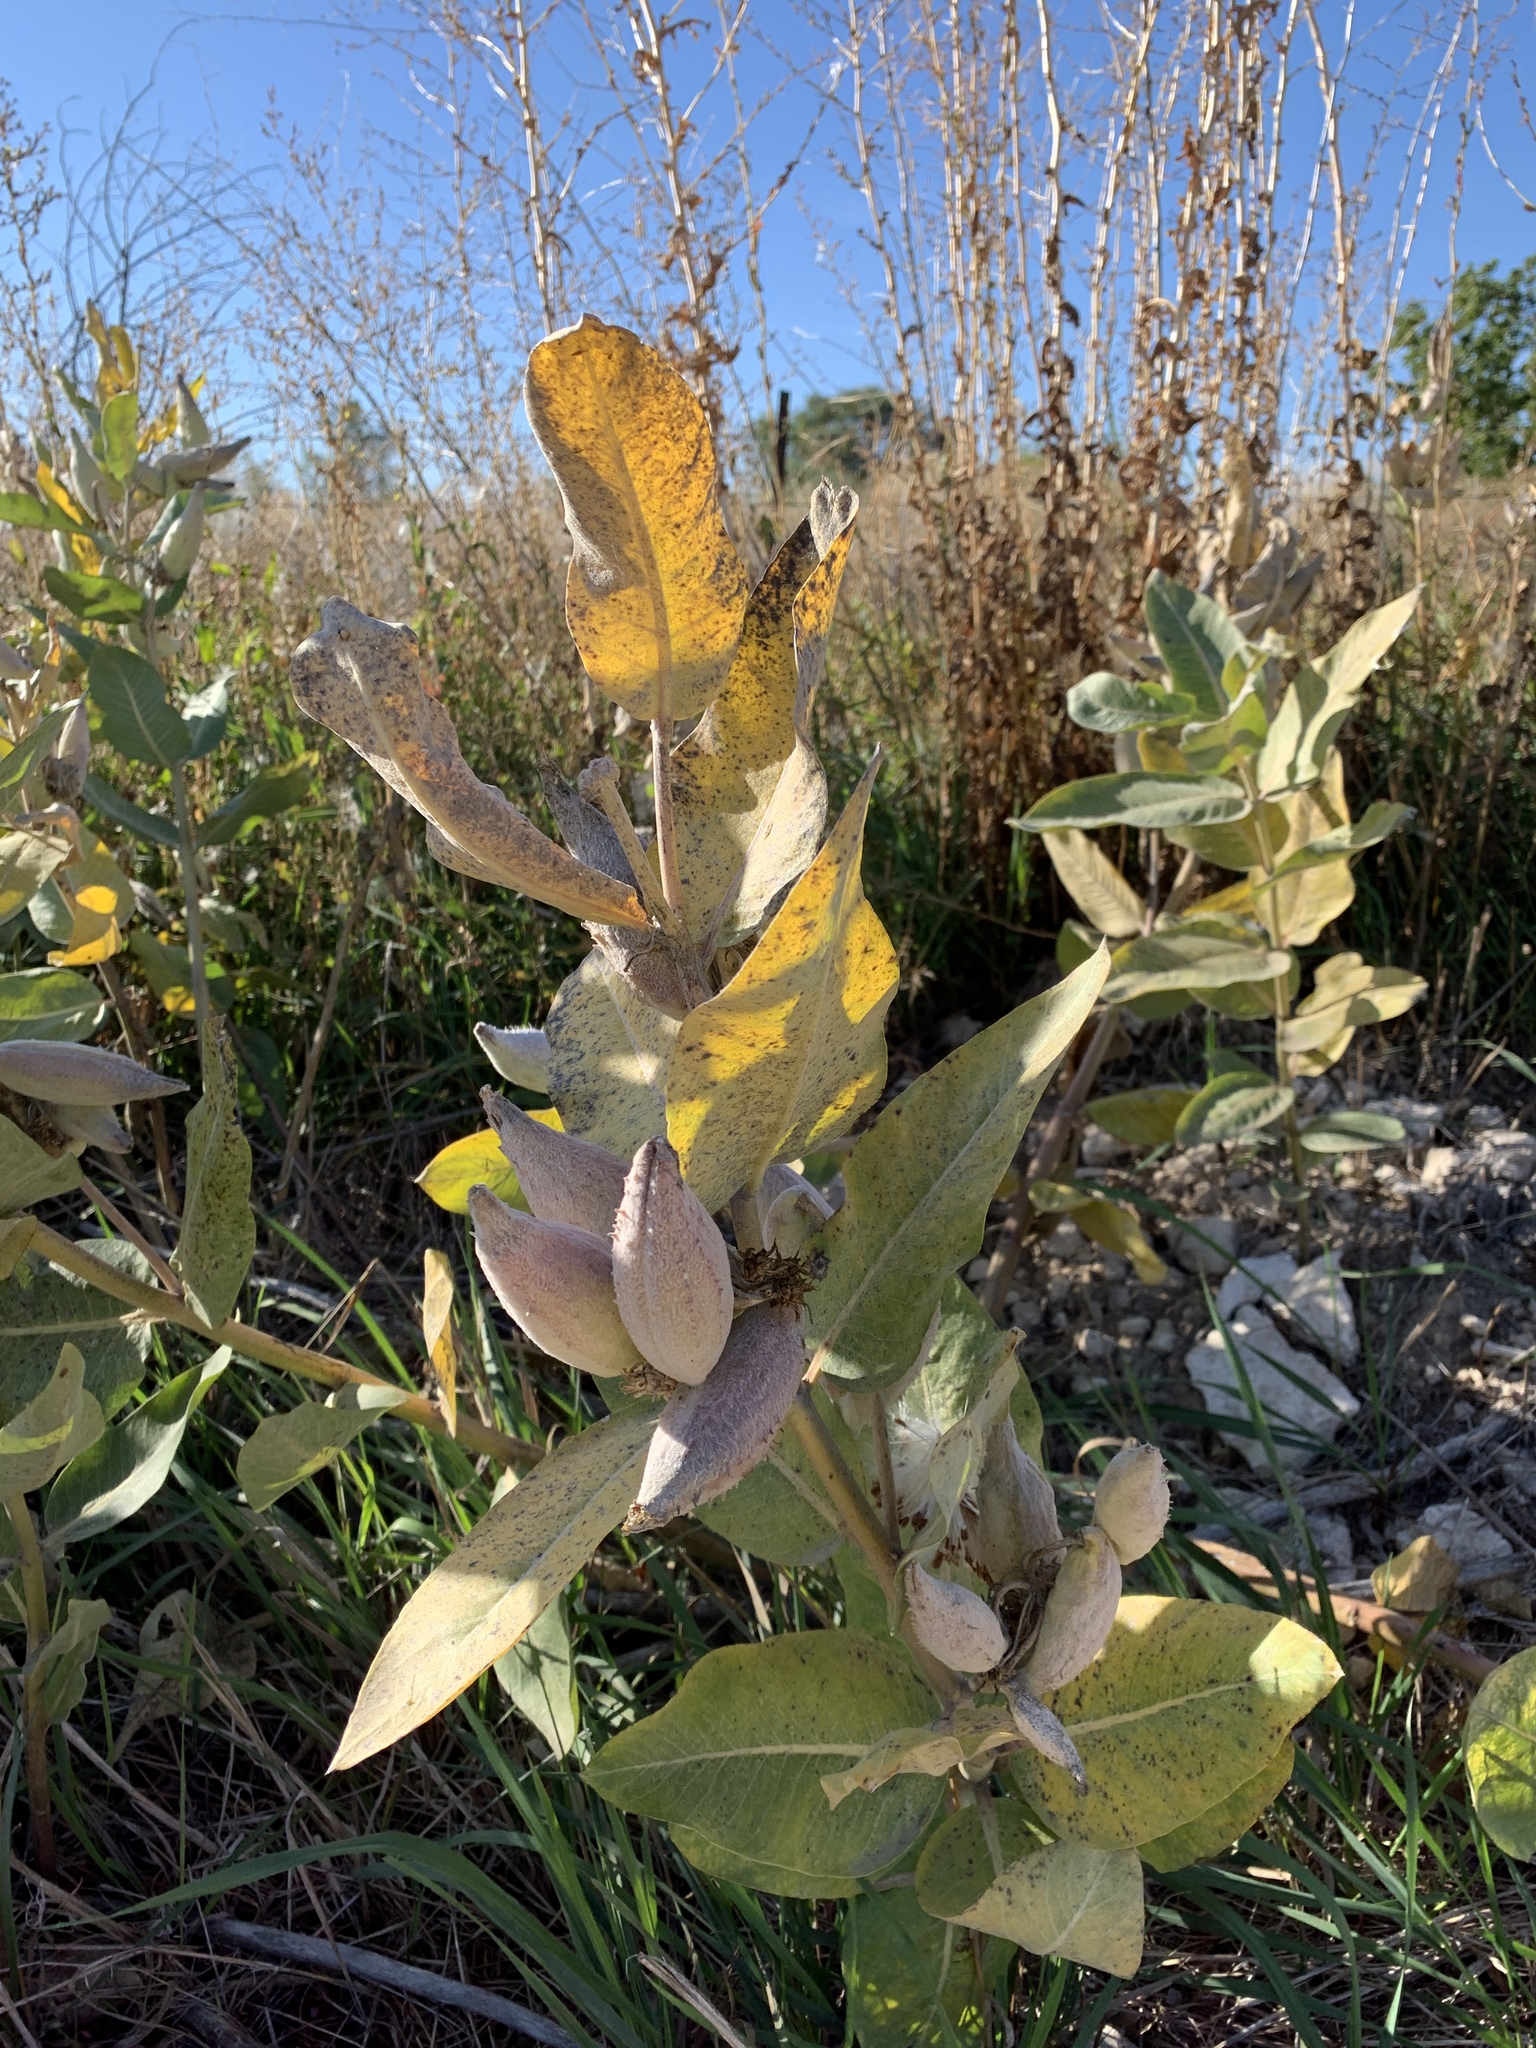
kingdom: Plantae
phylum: Tracheophyta
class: Magnoliopsida
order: Gentianales
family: Apocynaceae
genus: Asclepias
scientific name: Asclepias speciosa
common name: Showy milkweed
